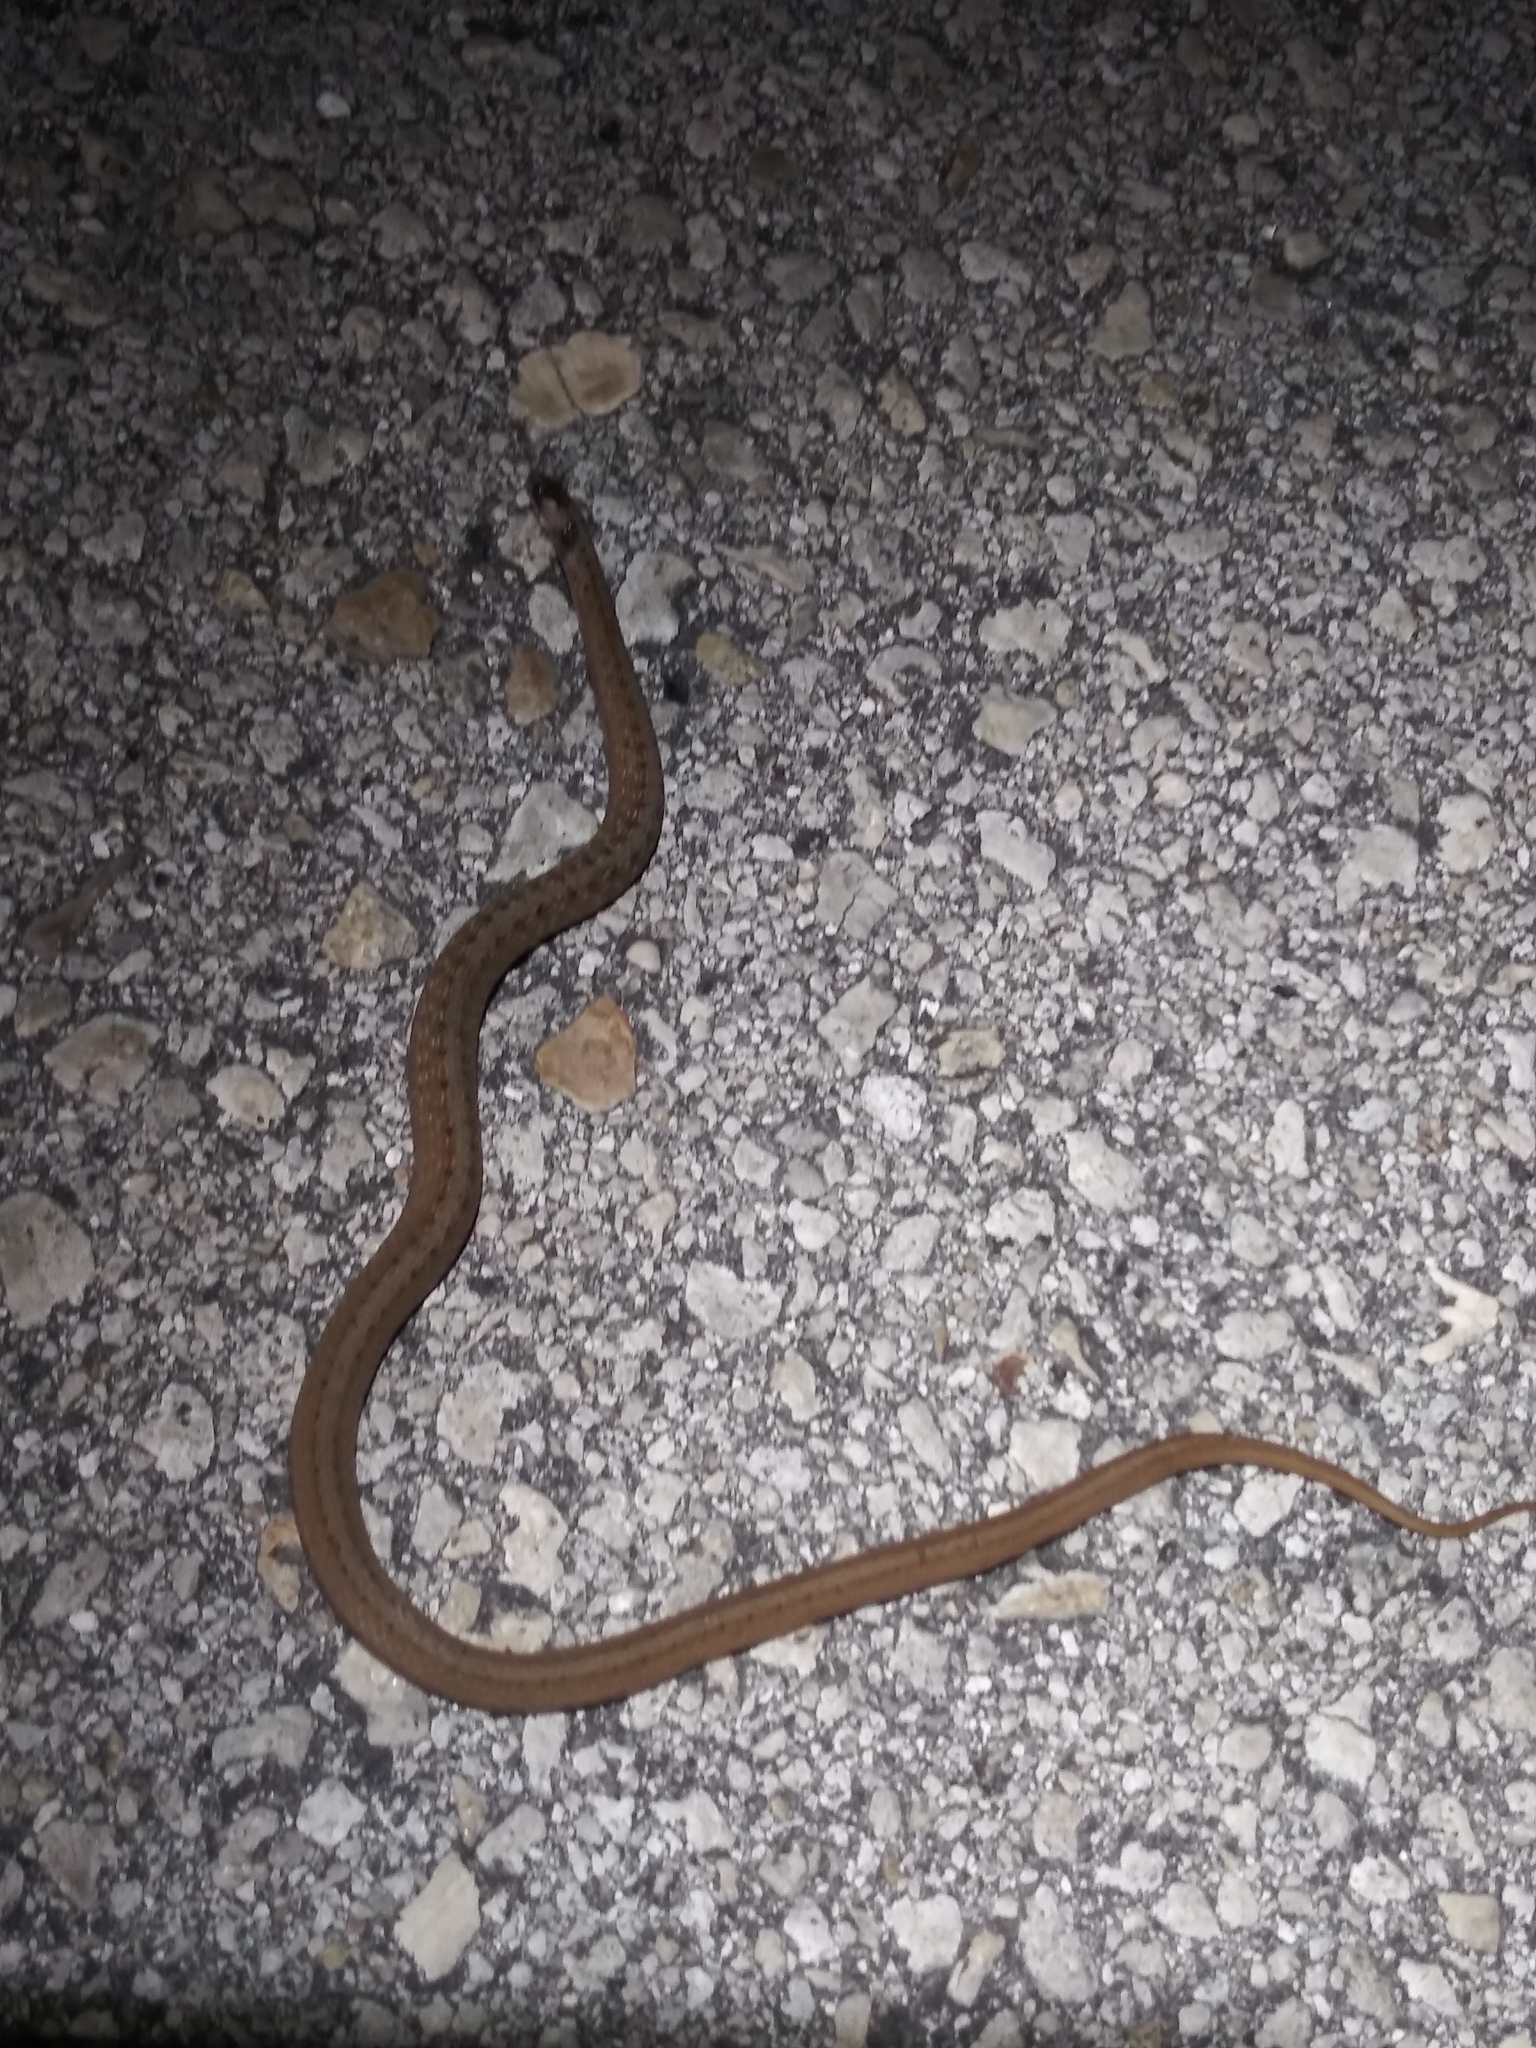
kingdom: Animalia
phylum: Chordata
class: Squamata
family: Colubridae
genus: Storeria
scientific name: Storeria victa
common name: Florida brown snake
